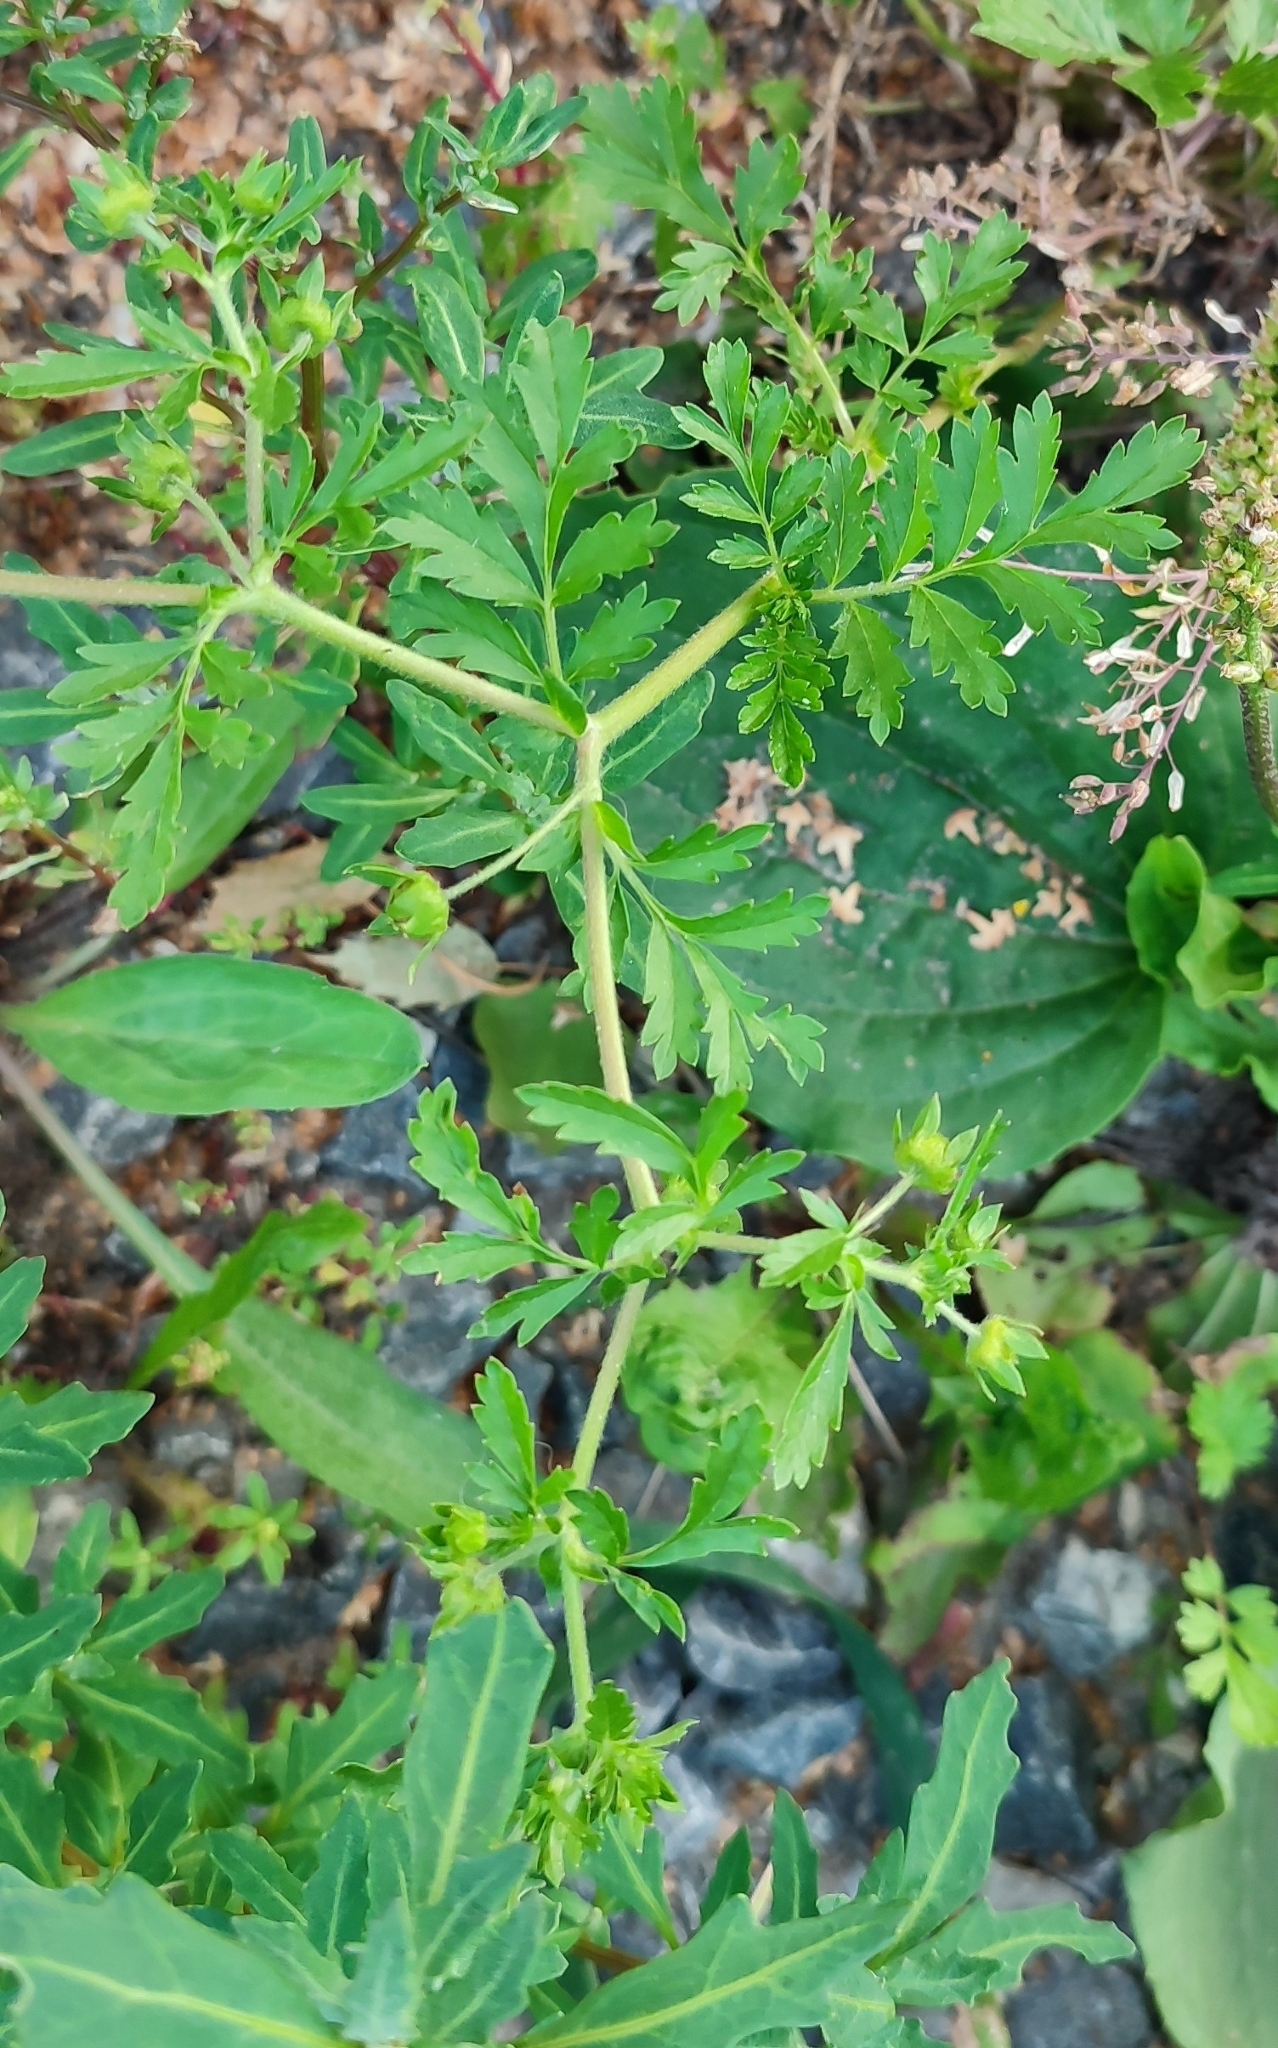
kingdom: Plantae
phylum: Tracheophyta
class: Magnoliopsida
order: Rosales
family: Rosaceae
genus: Potentilla
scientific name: Potentilla supina
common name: Prostrate cinquefoil
